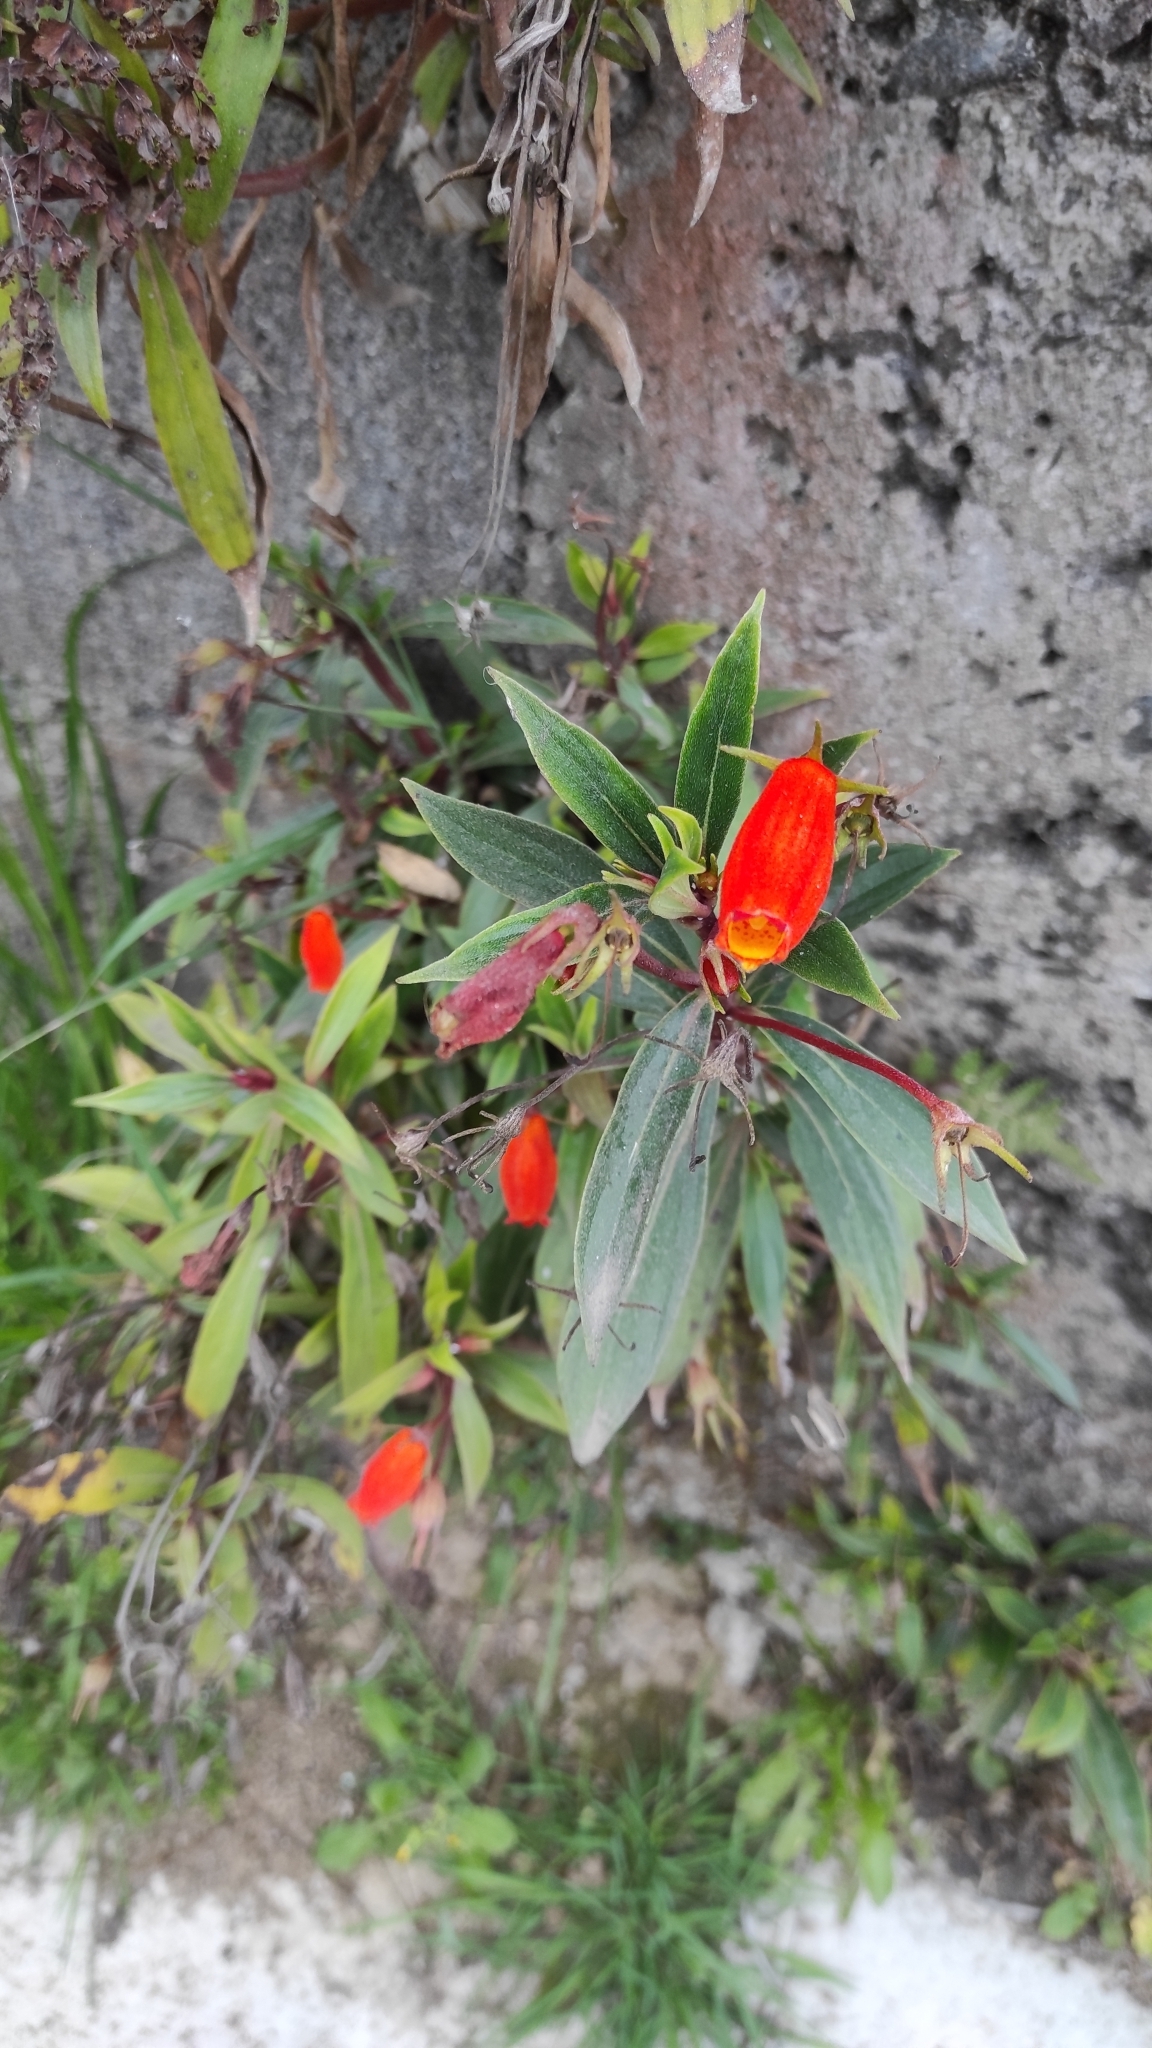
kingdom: Plantae
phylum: Tracheophyta
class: Magnoliopsida
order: Lamiales
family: Gesneriaceae
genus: Seemannia
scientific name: Seemannia sylvatica
